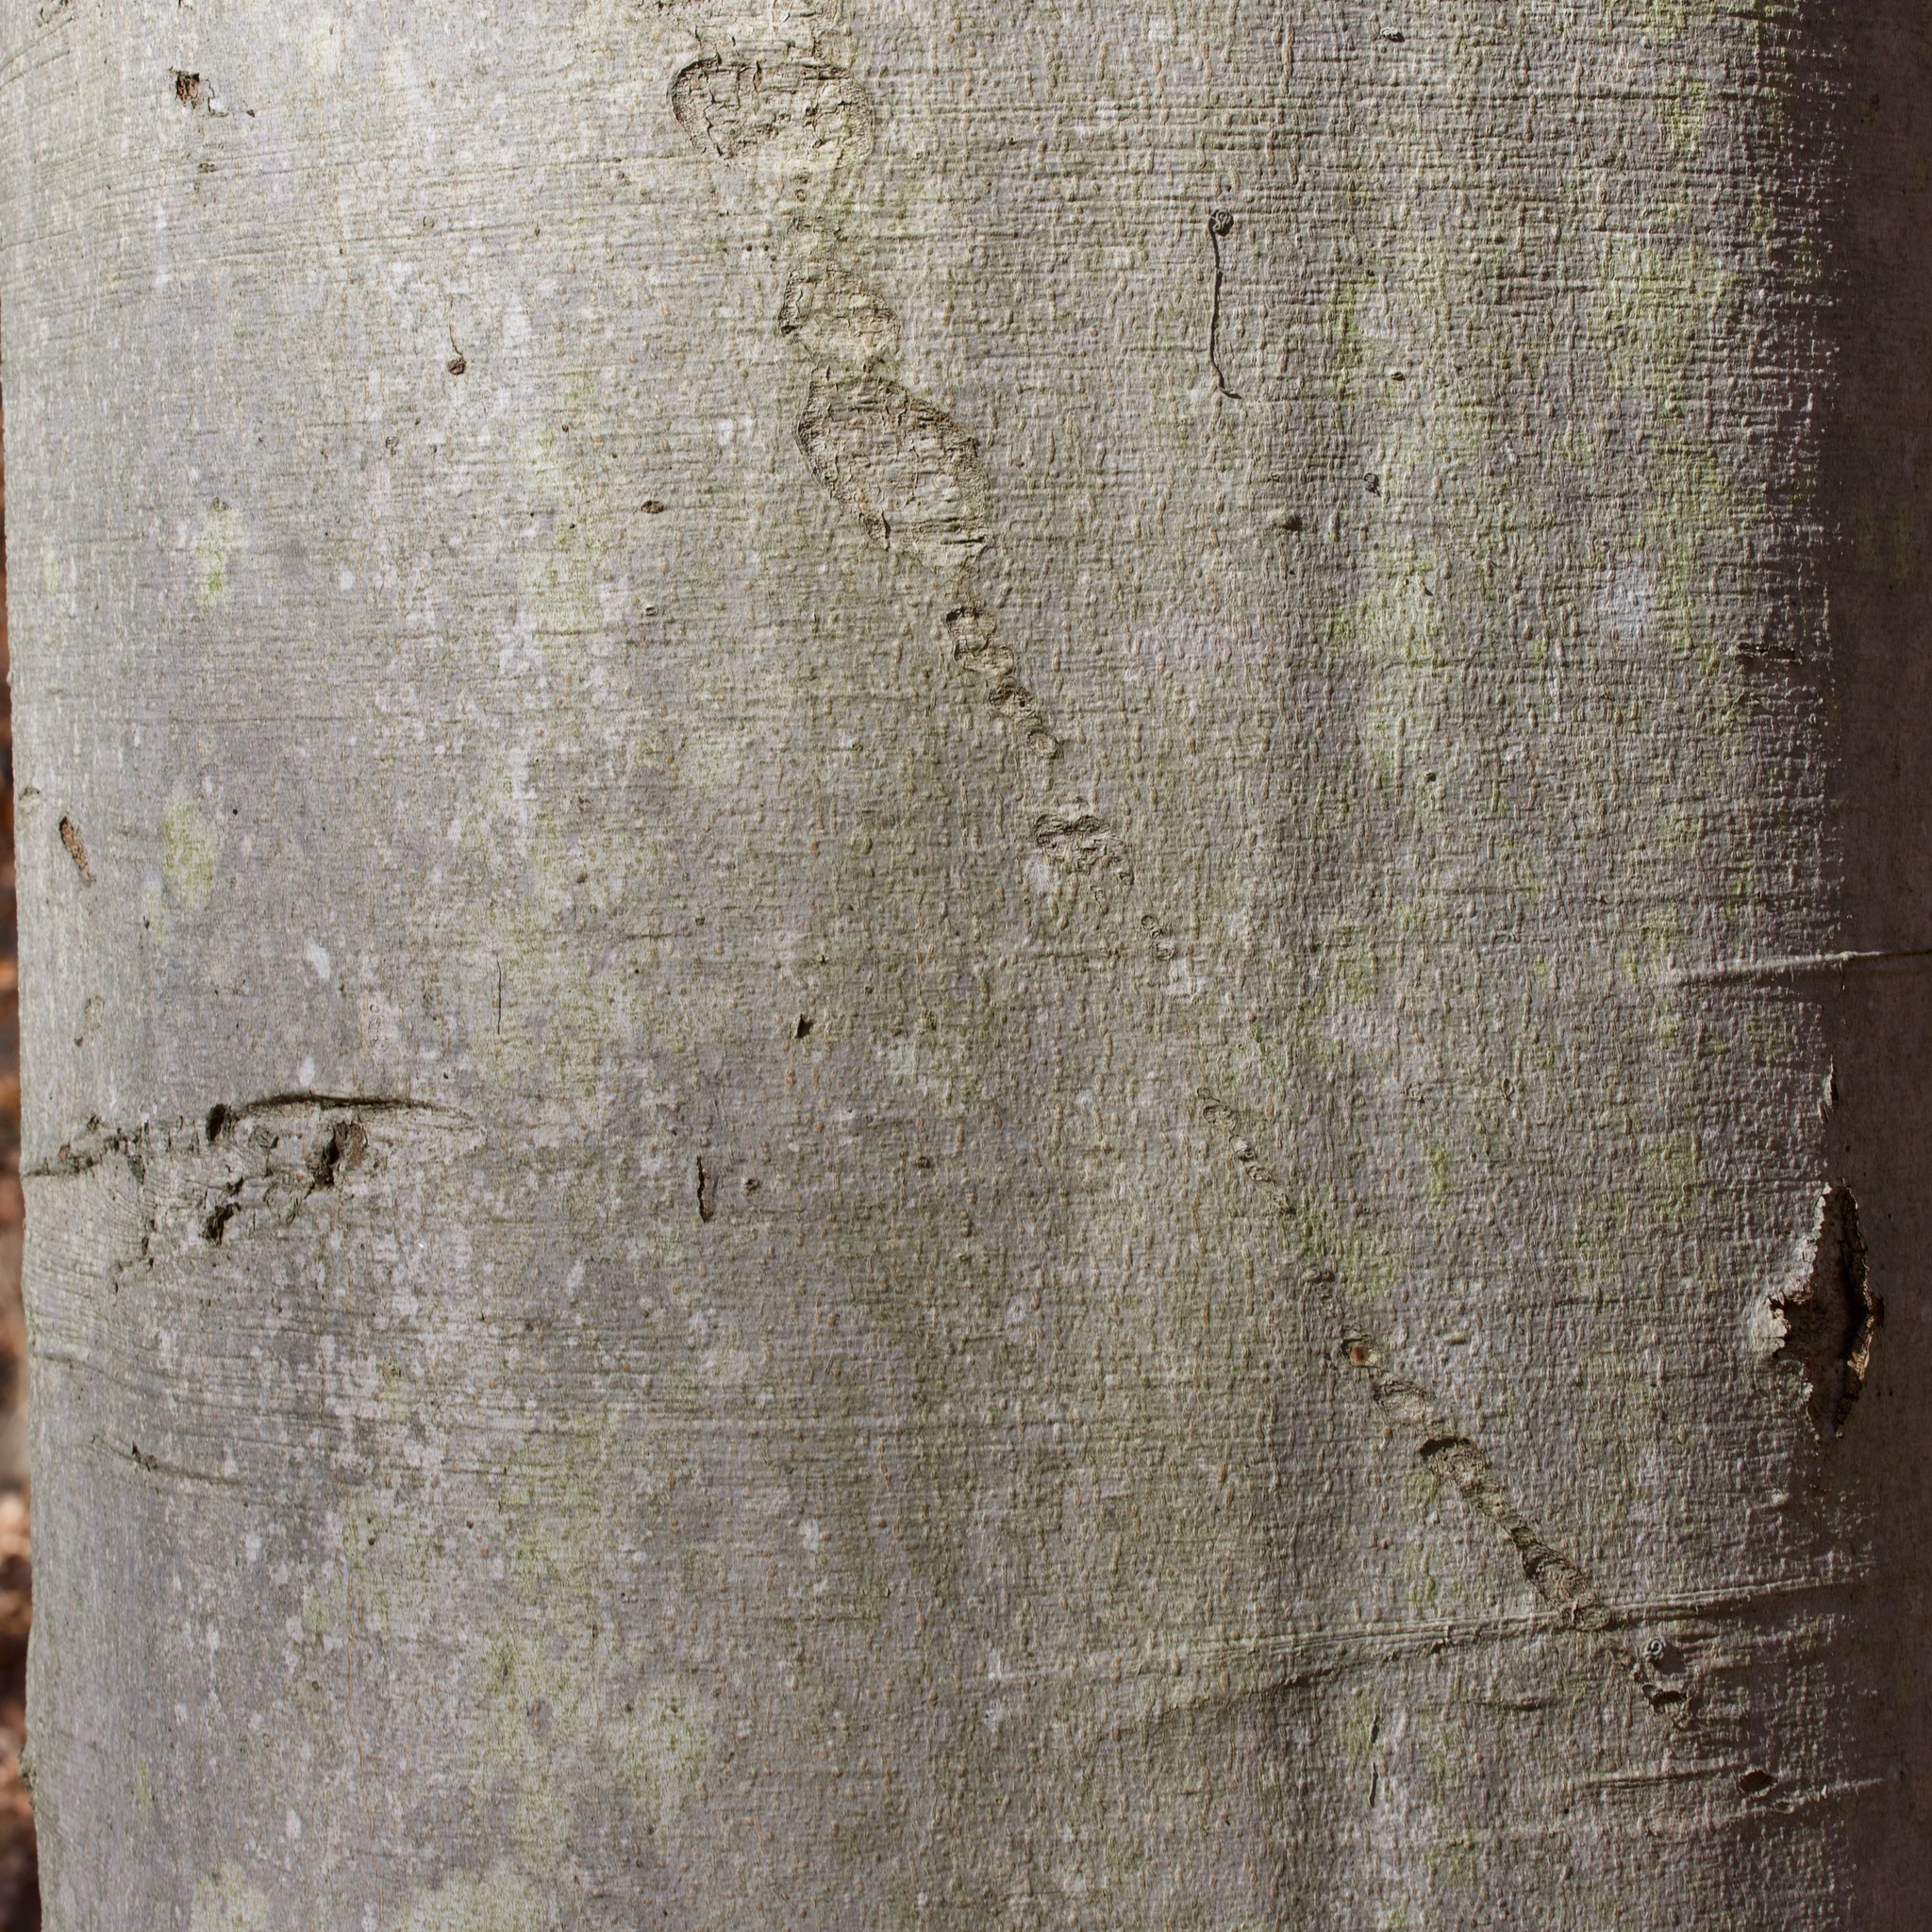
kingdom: Plantae
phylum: Tracheophyta
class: Magnoliopsida
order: Fagales
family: Fagaceae
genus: Fagus
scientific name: Fagus grandifolia
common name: American beech
